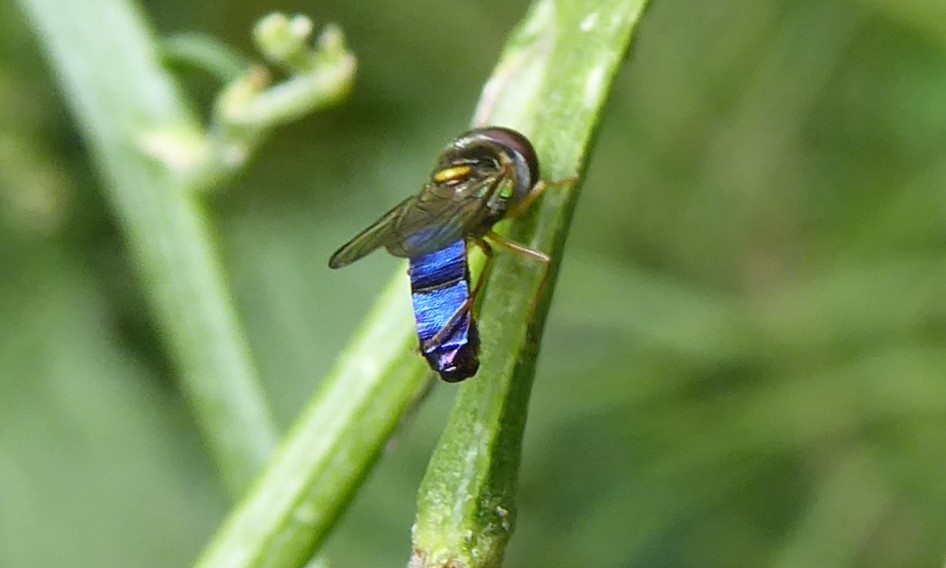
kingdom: Animalia
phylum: Arthropoda
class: Insecta
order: Diptera
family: Syrphidae
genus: Allograpta
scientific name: Allograpta hollowayae
